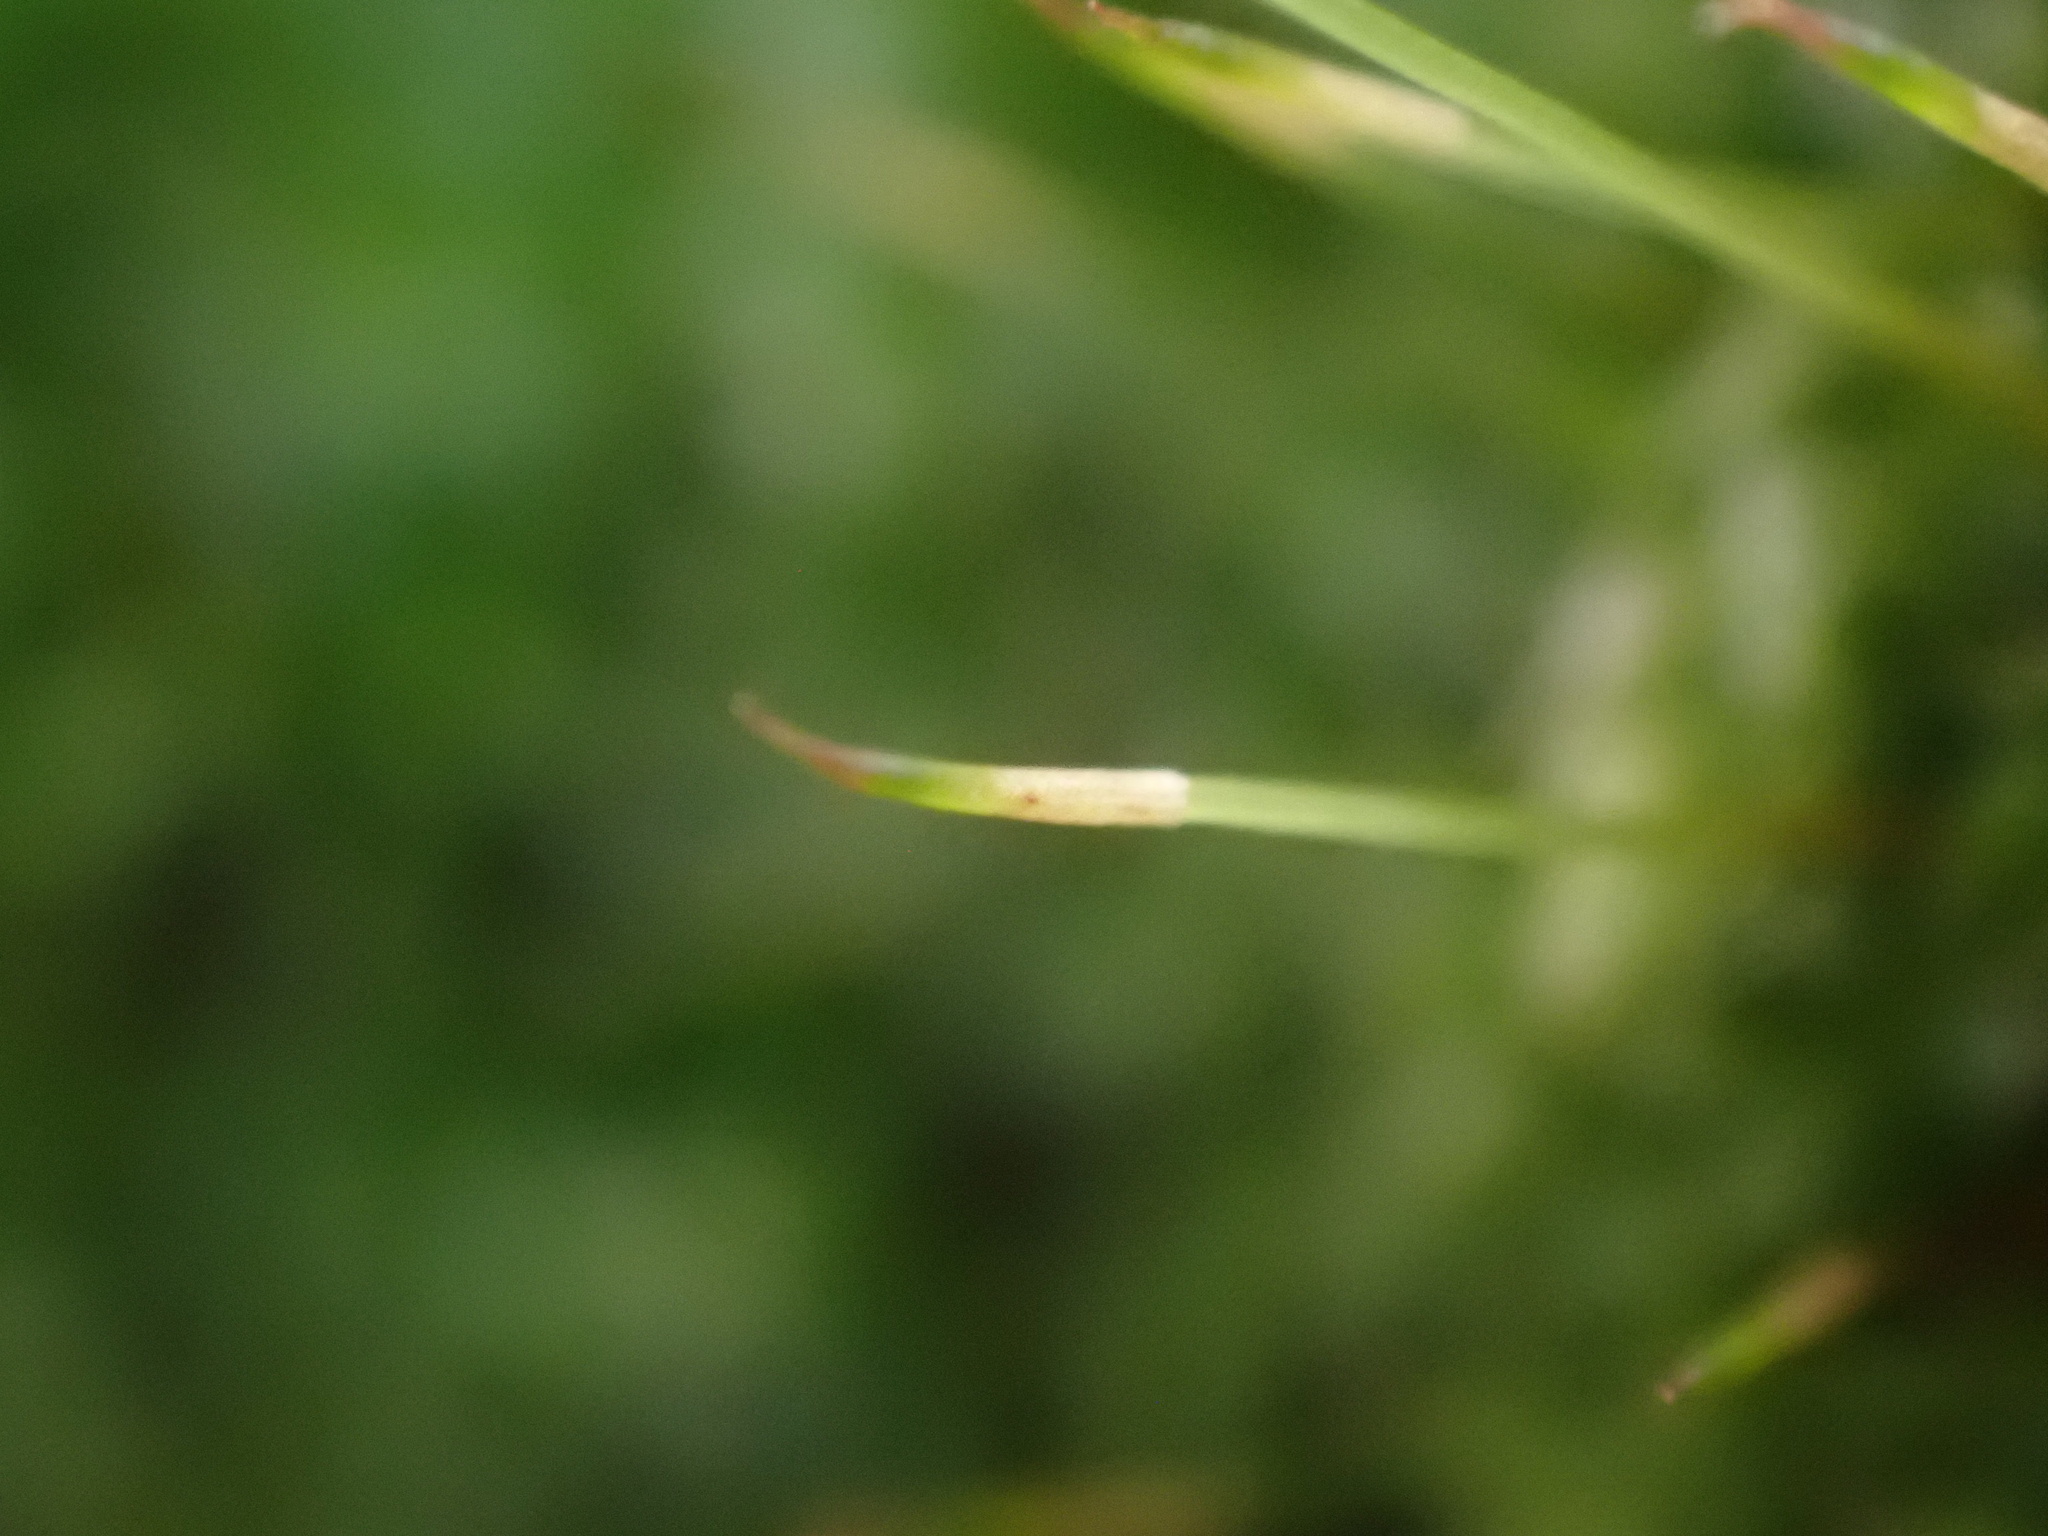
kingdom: Plantae
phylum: Bryophyta
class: Bryopsida
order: Bryales
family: Bryaceae
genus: Rosulabryum
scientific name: Rosulabryum capillare
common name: Capillary thread-moss
